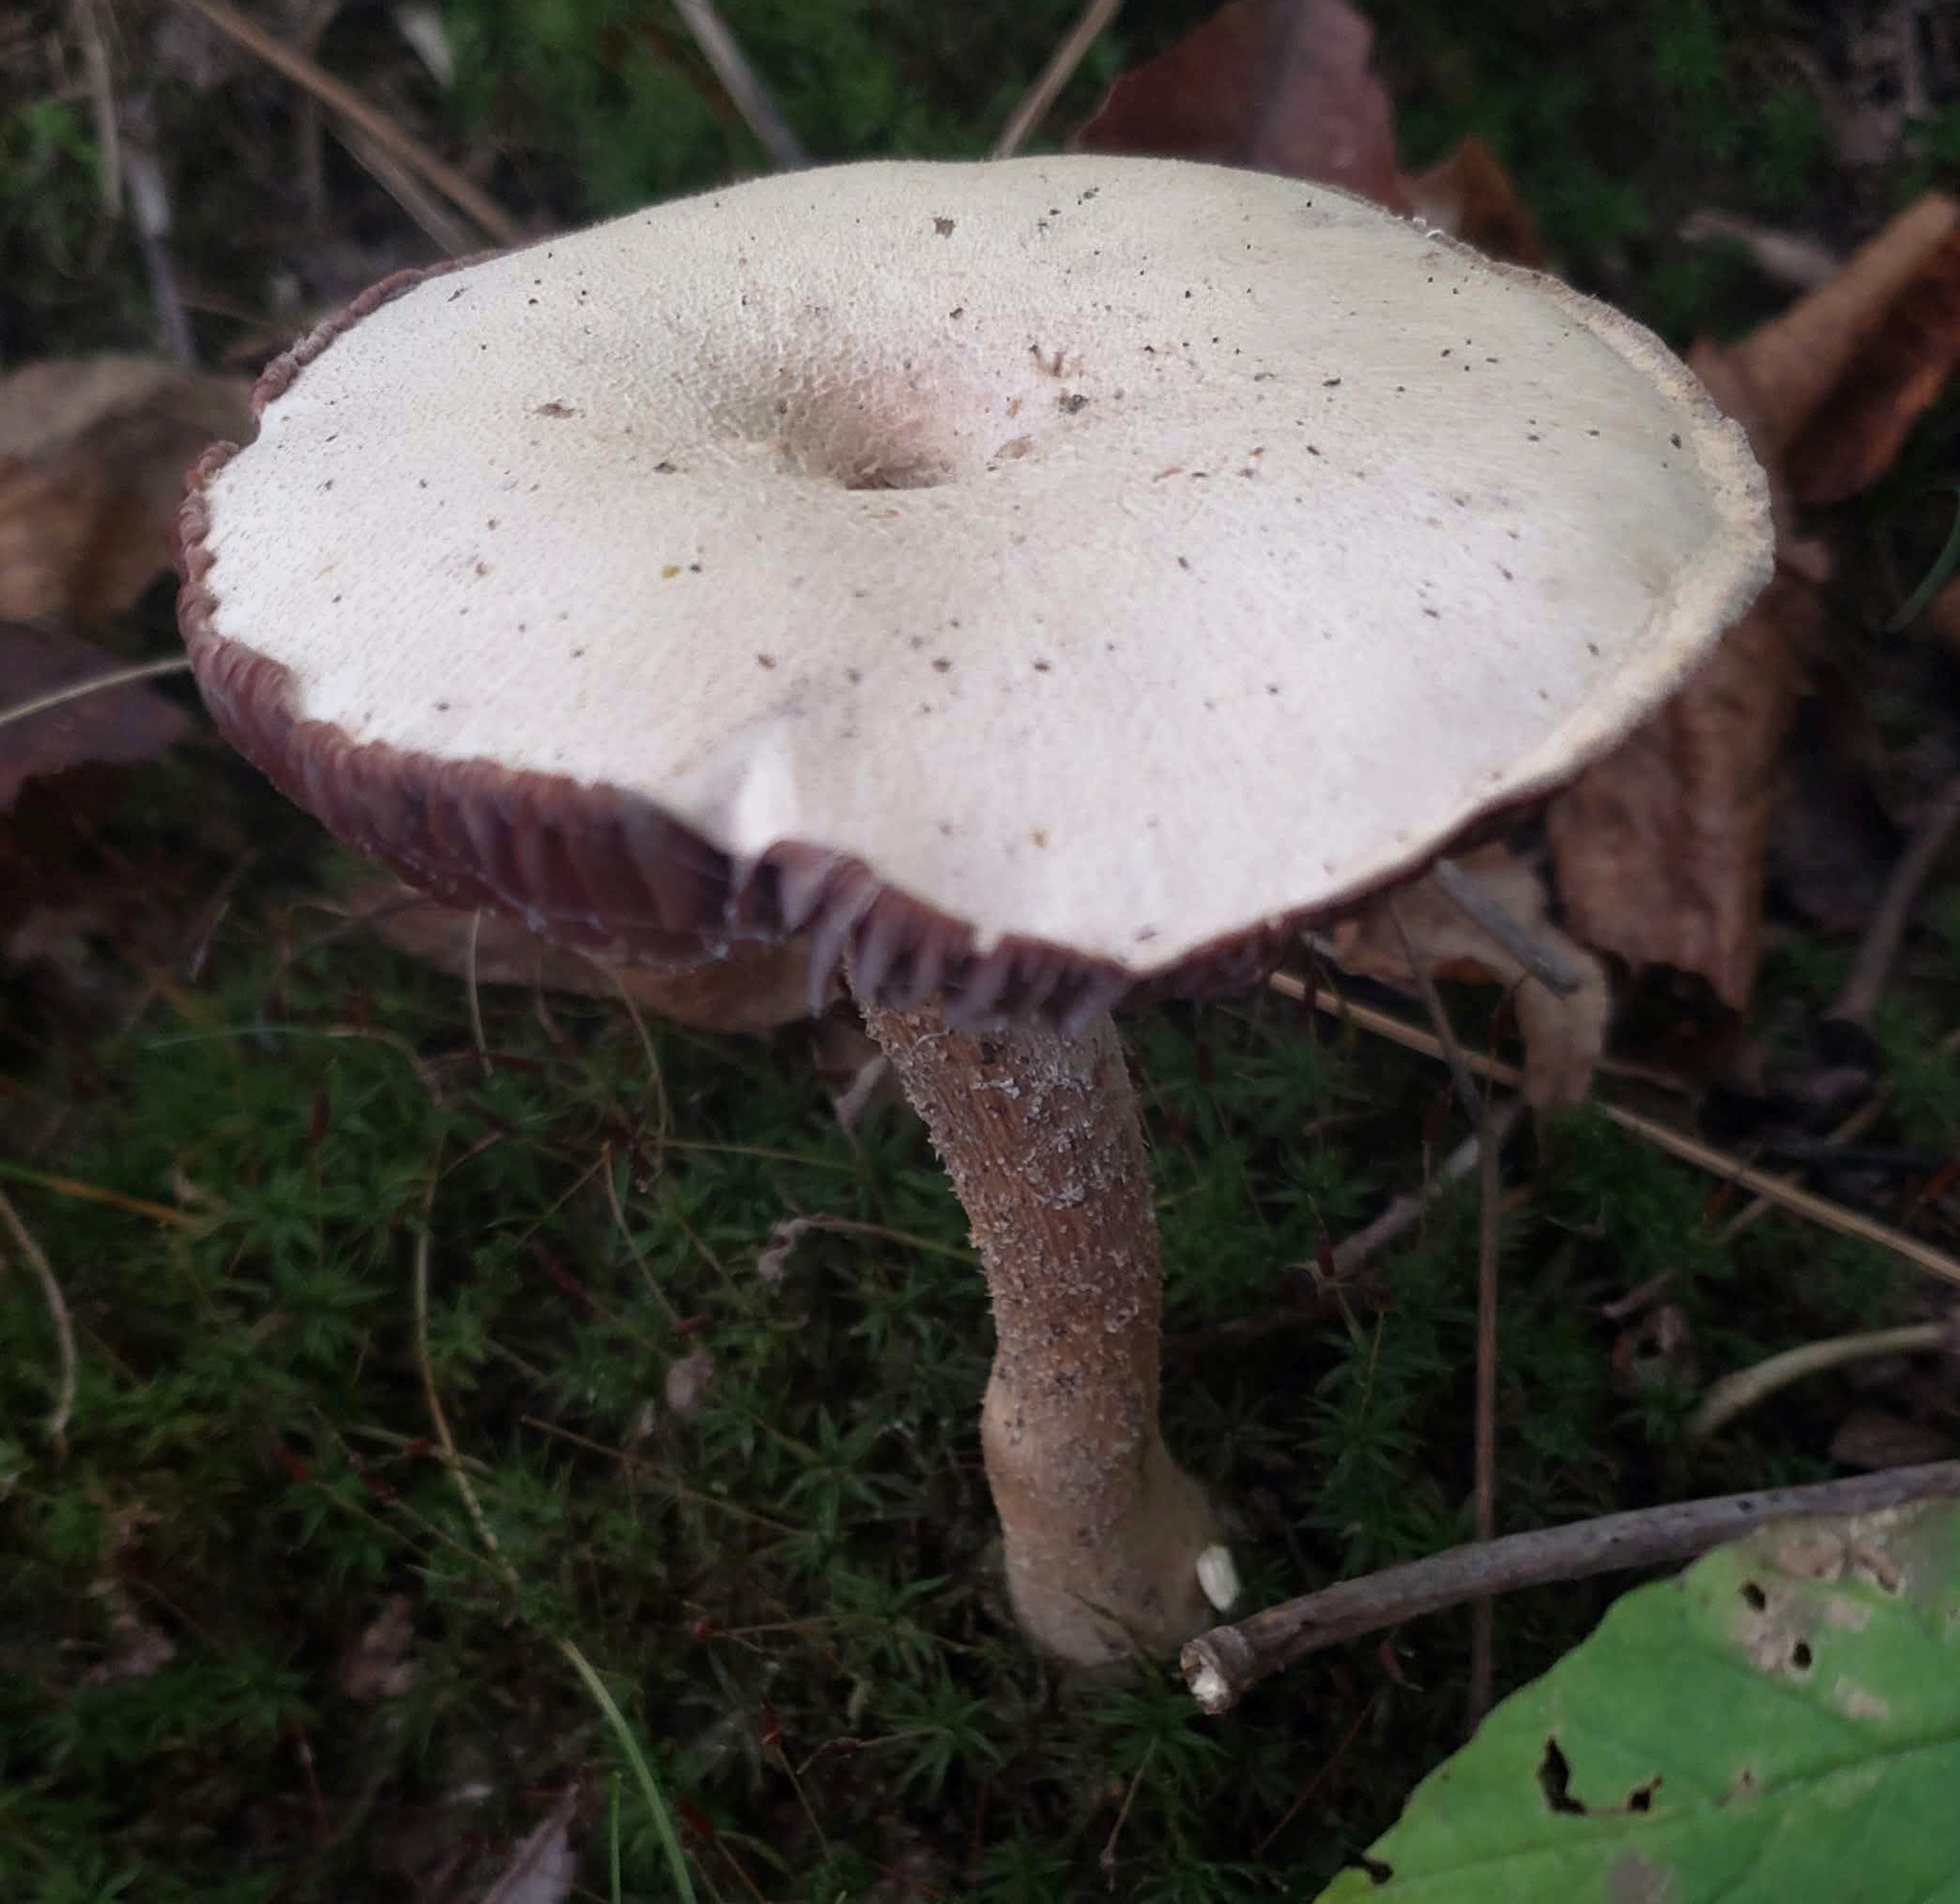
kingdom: Fungi
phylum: Basidiomycota
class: Agaricomycetes
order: Agaricales
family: Hydnangiaceae
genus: Laccaria
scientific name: Laccaria ochropurpurea
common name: Purple laccaria
